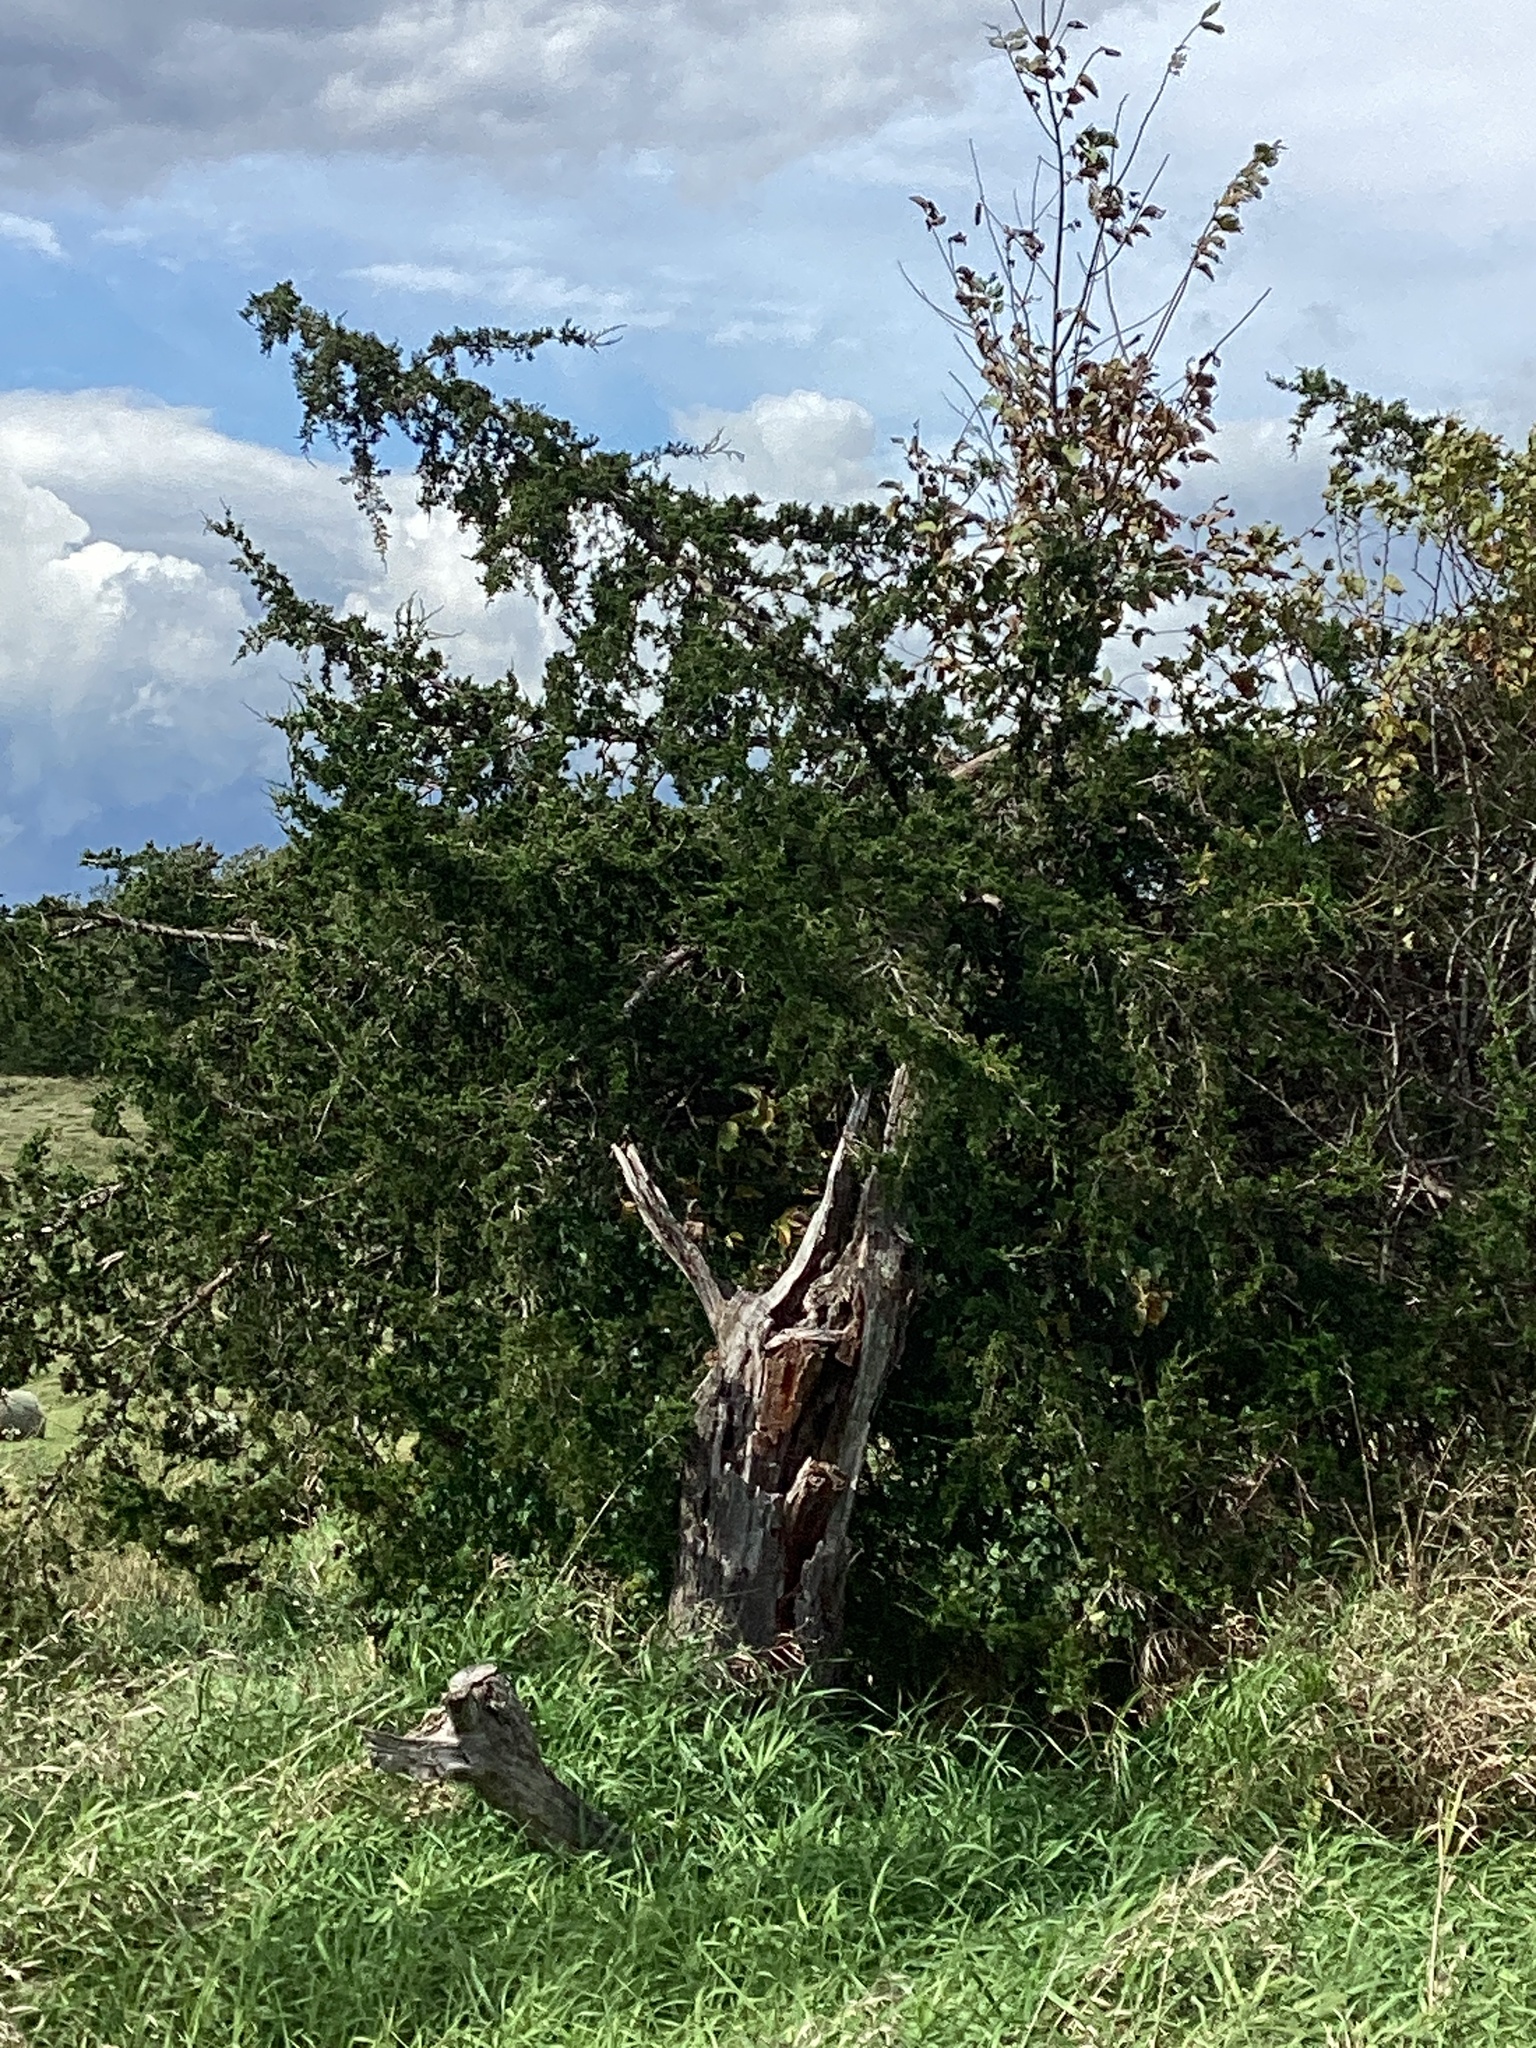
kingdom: Plantae
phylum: Tracheophyta
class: Pinopsida
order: Pinales
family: Cupressaceae
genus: Juniperus
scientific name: Juniperus virginiana
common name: Red juniper
